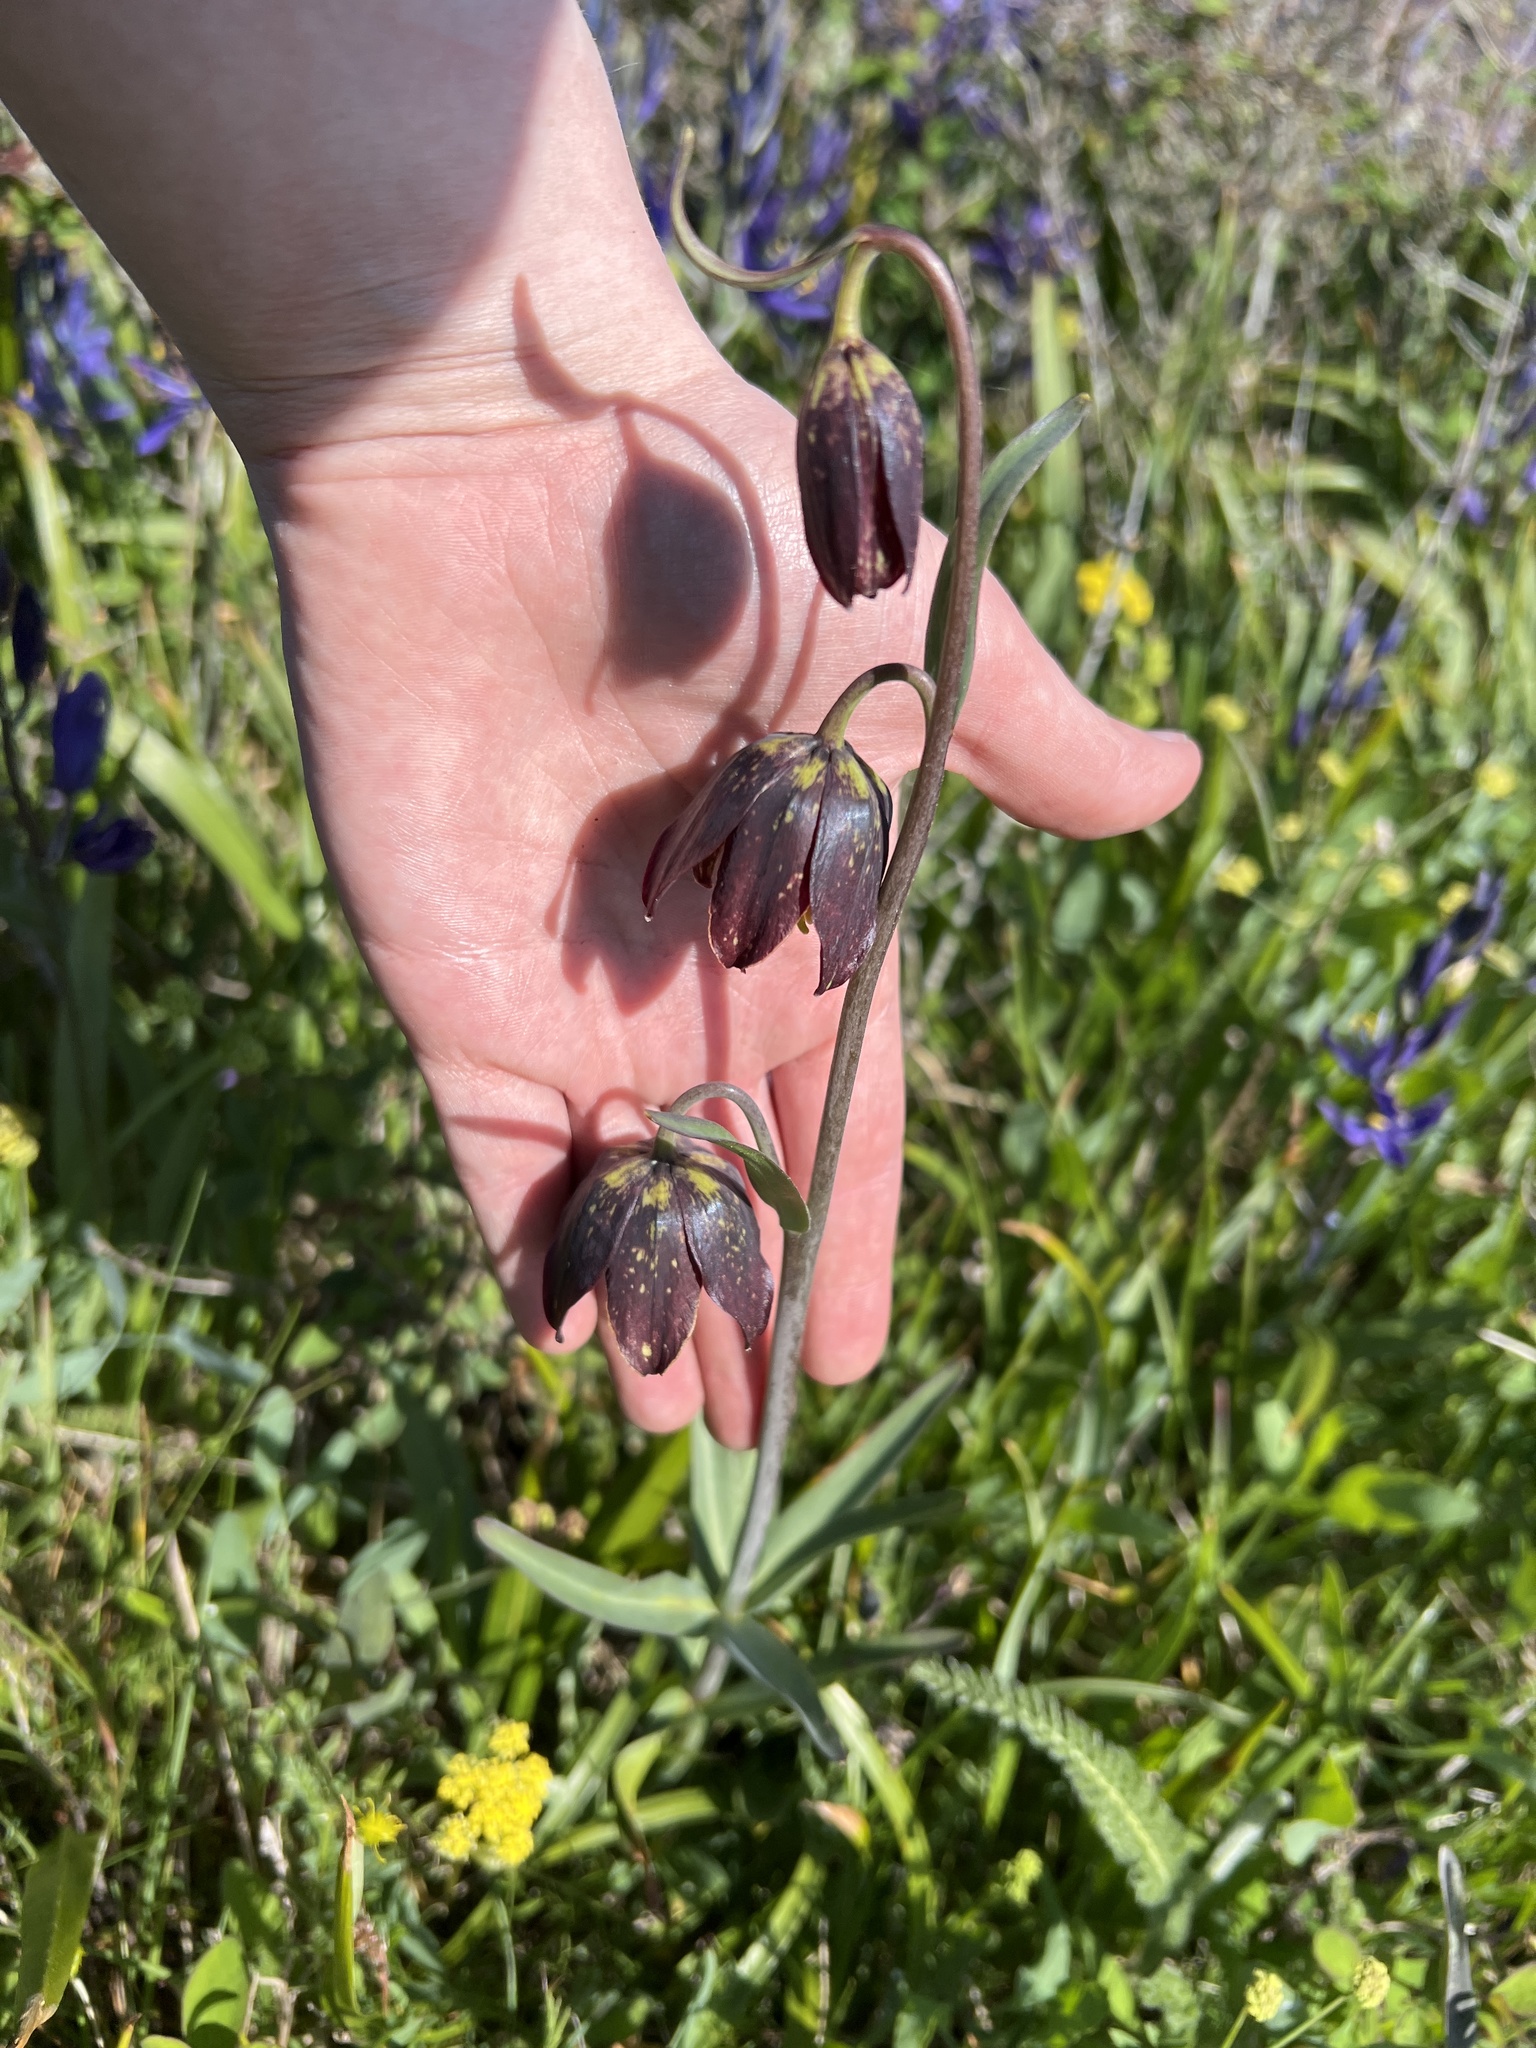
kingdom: Plantae
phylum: Tracheophyta
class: Liliopsida
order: Liliales
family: Liliaceae
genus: Fritillaria
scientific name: Fritillaria affinis
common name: Ojai fritillary
